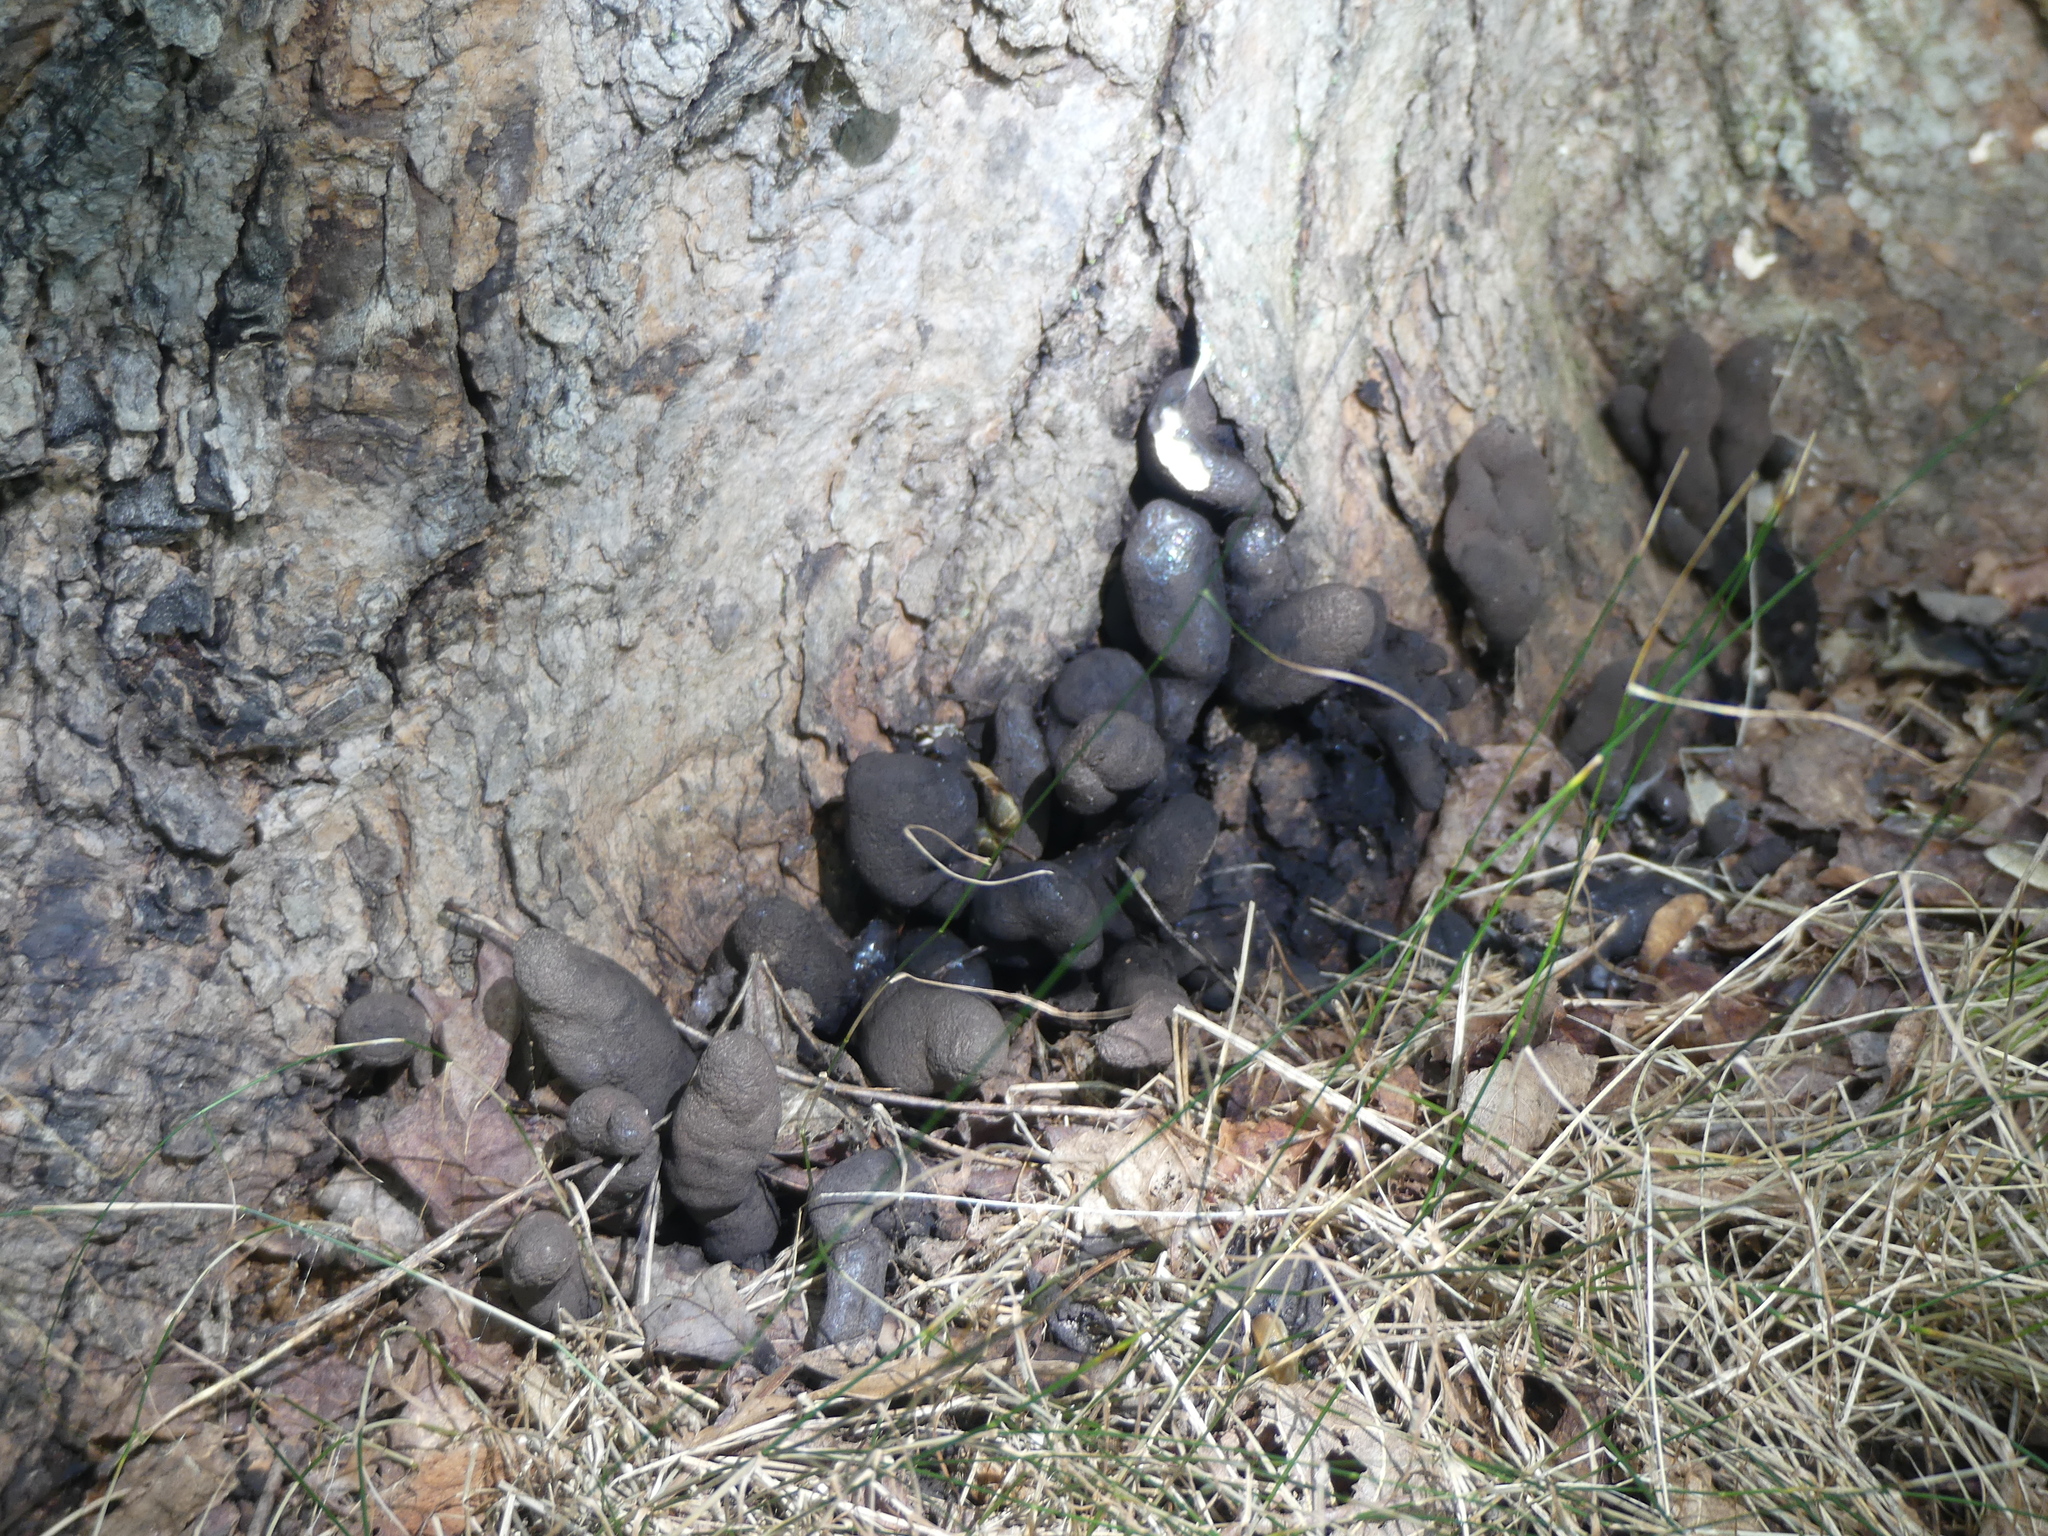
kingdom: Fungi
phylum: Ascomycota
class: Sordariomycetes
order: Xylariales
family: Xylariaceae
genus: Xylaria
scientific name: Xylaria polymorpha
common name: Dead man's fingers
